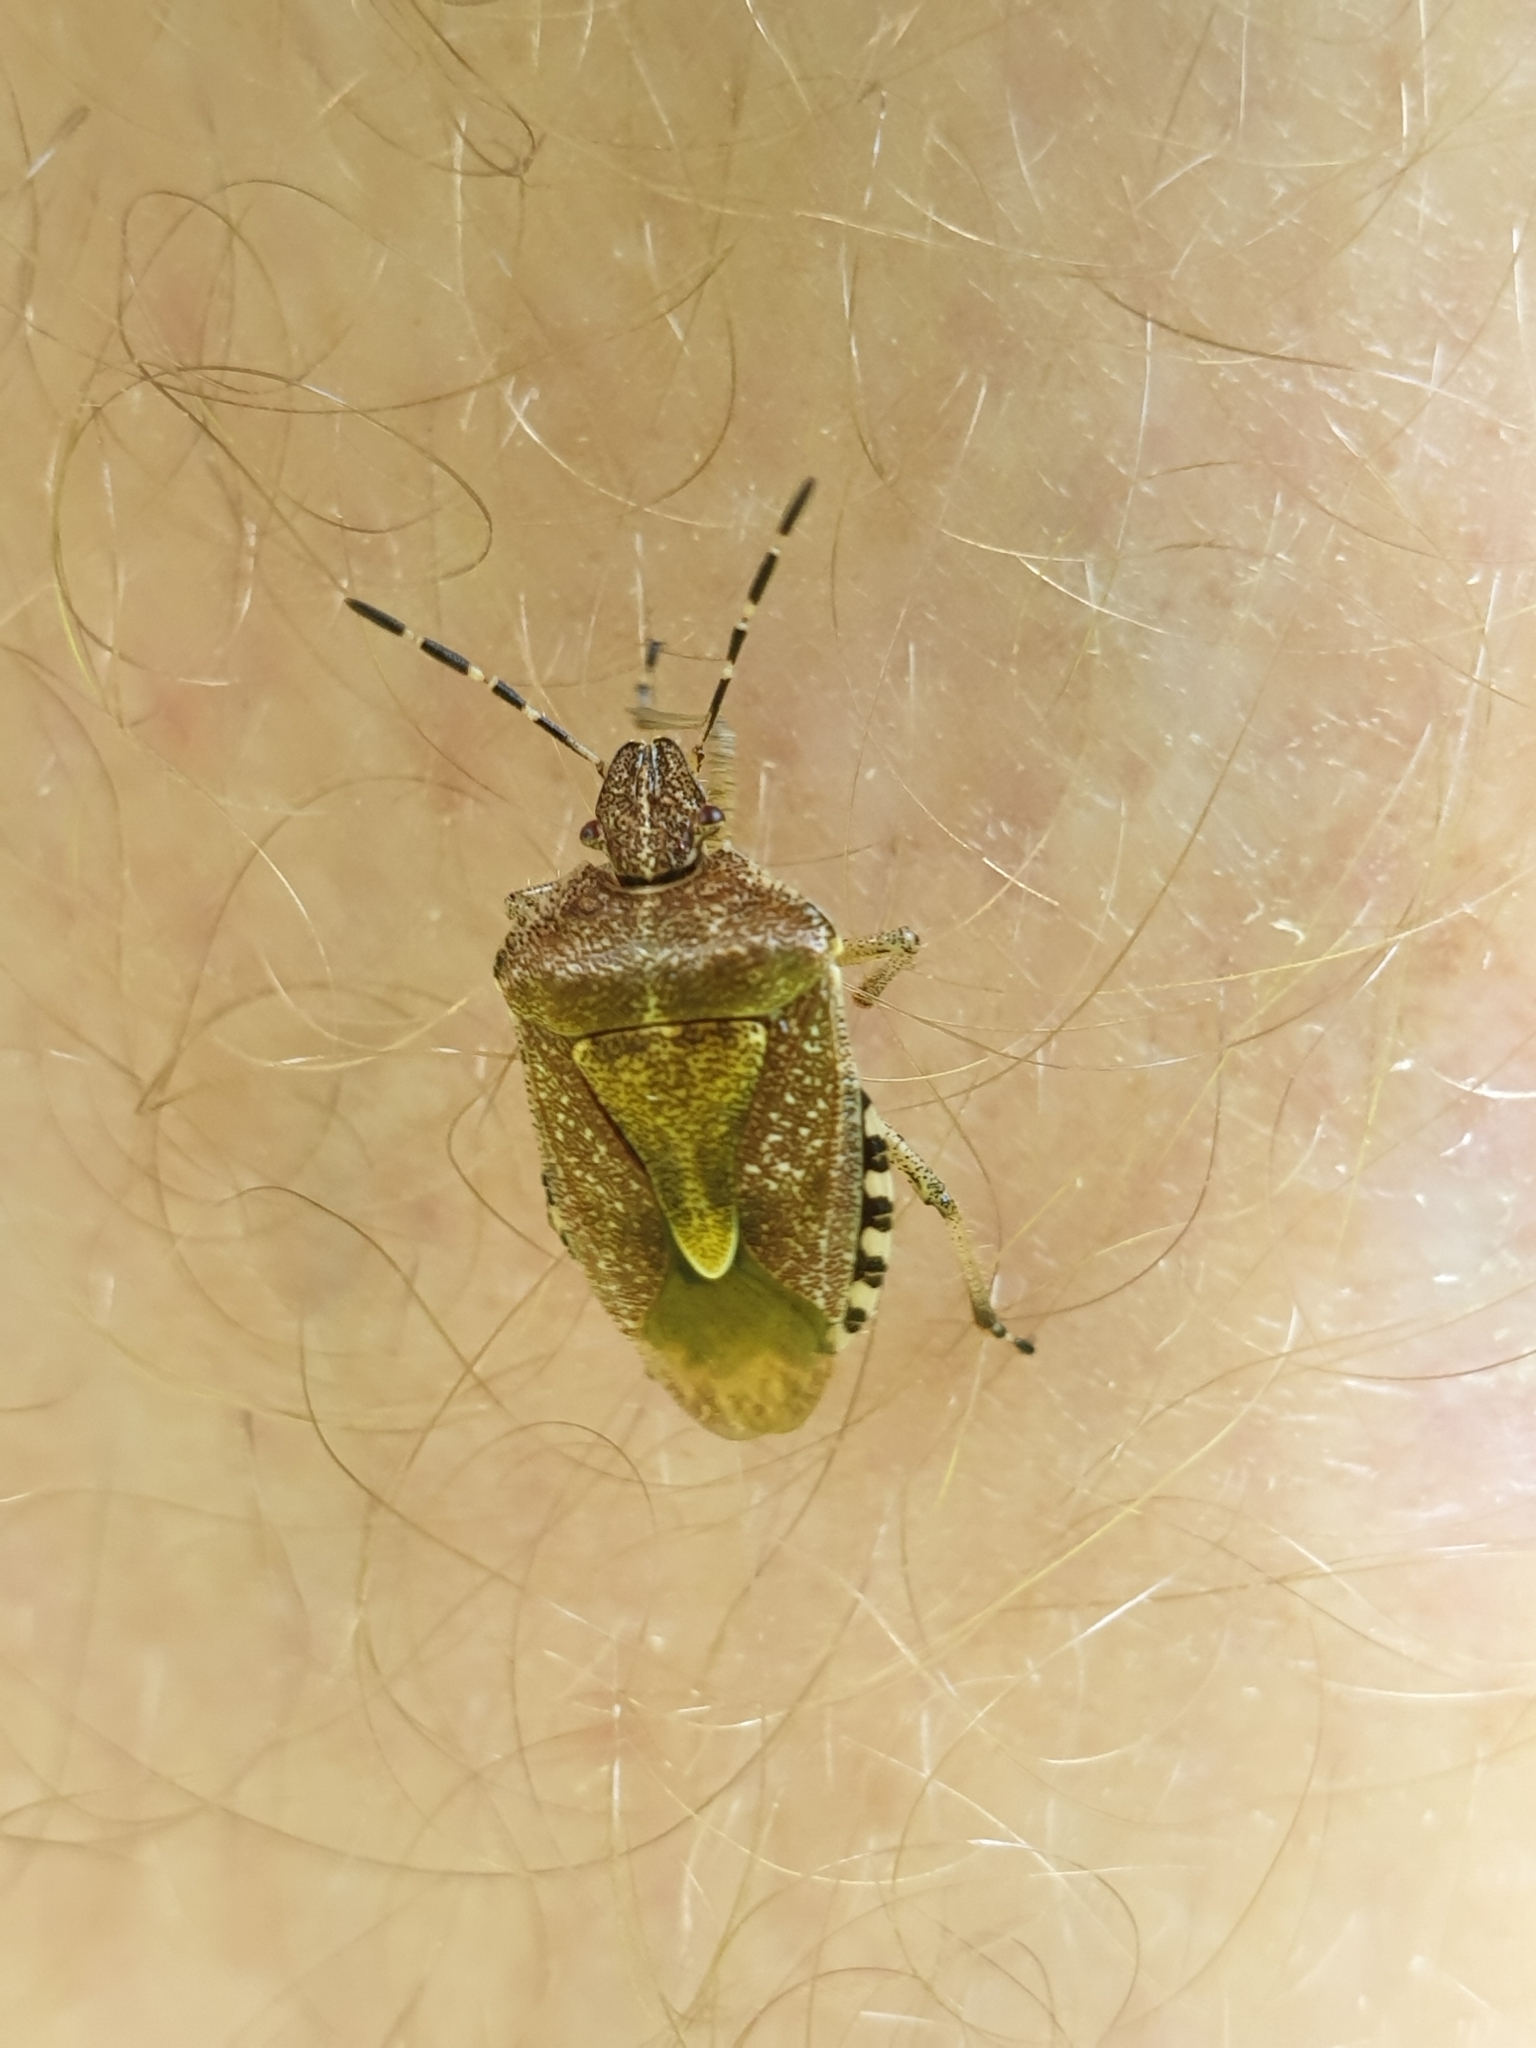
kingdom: Animalia
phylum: Arthropoda
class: Insecta
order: Hemiptera
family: Pentatomidae
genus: Dolycoris
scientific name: Dolycoris baccarum
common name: Sloe bug
